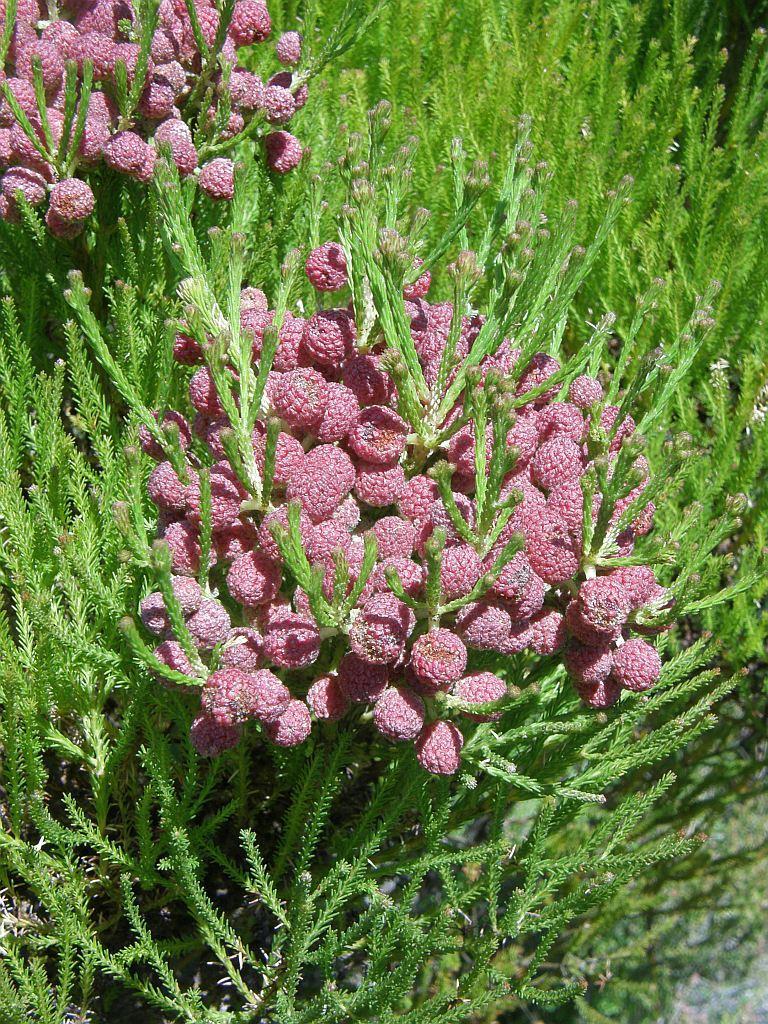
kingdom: Plantae
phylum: Tracheophyta
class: Magnoliopsida
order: Bruniales
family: Bruniaceae
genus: Berzelia
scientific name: Berzelia lanuginosa
